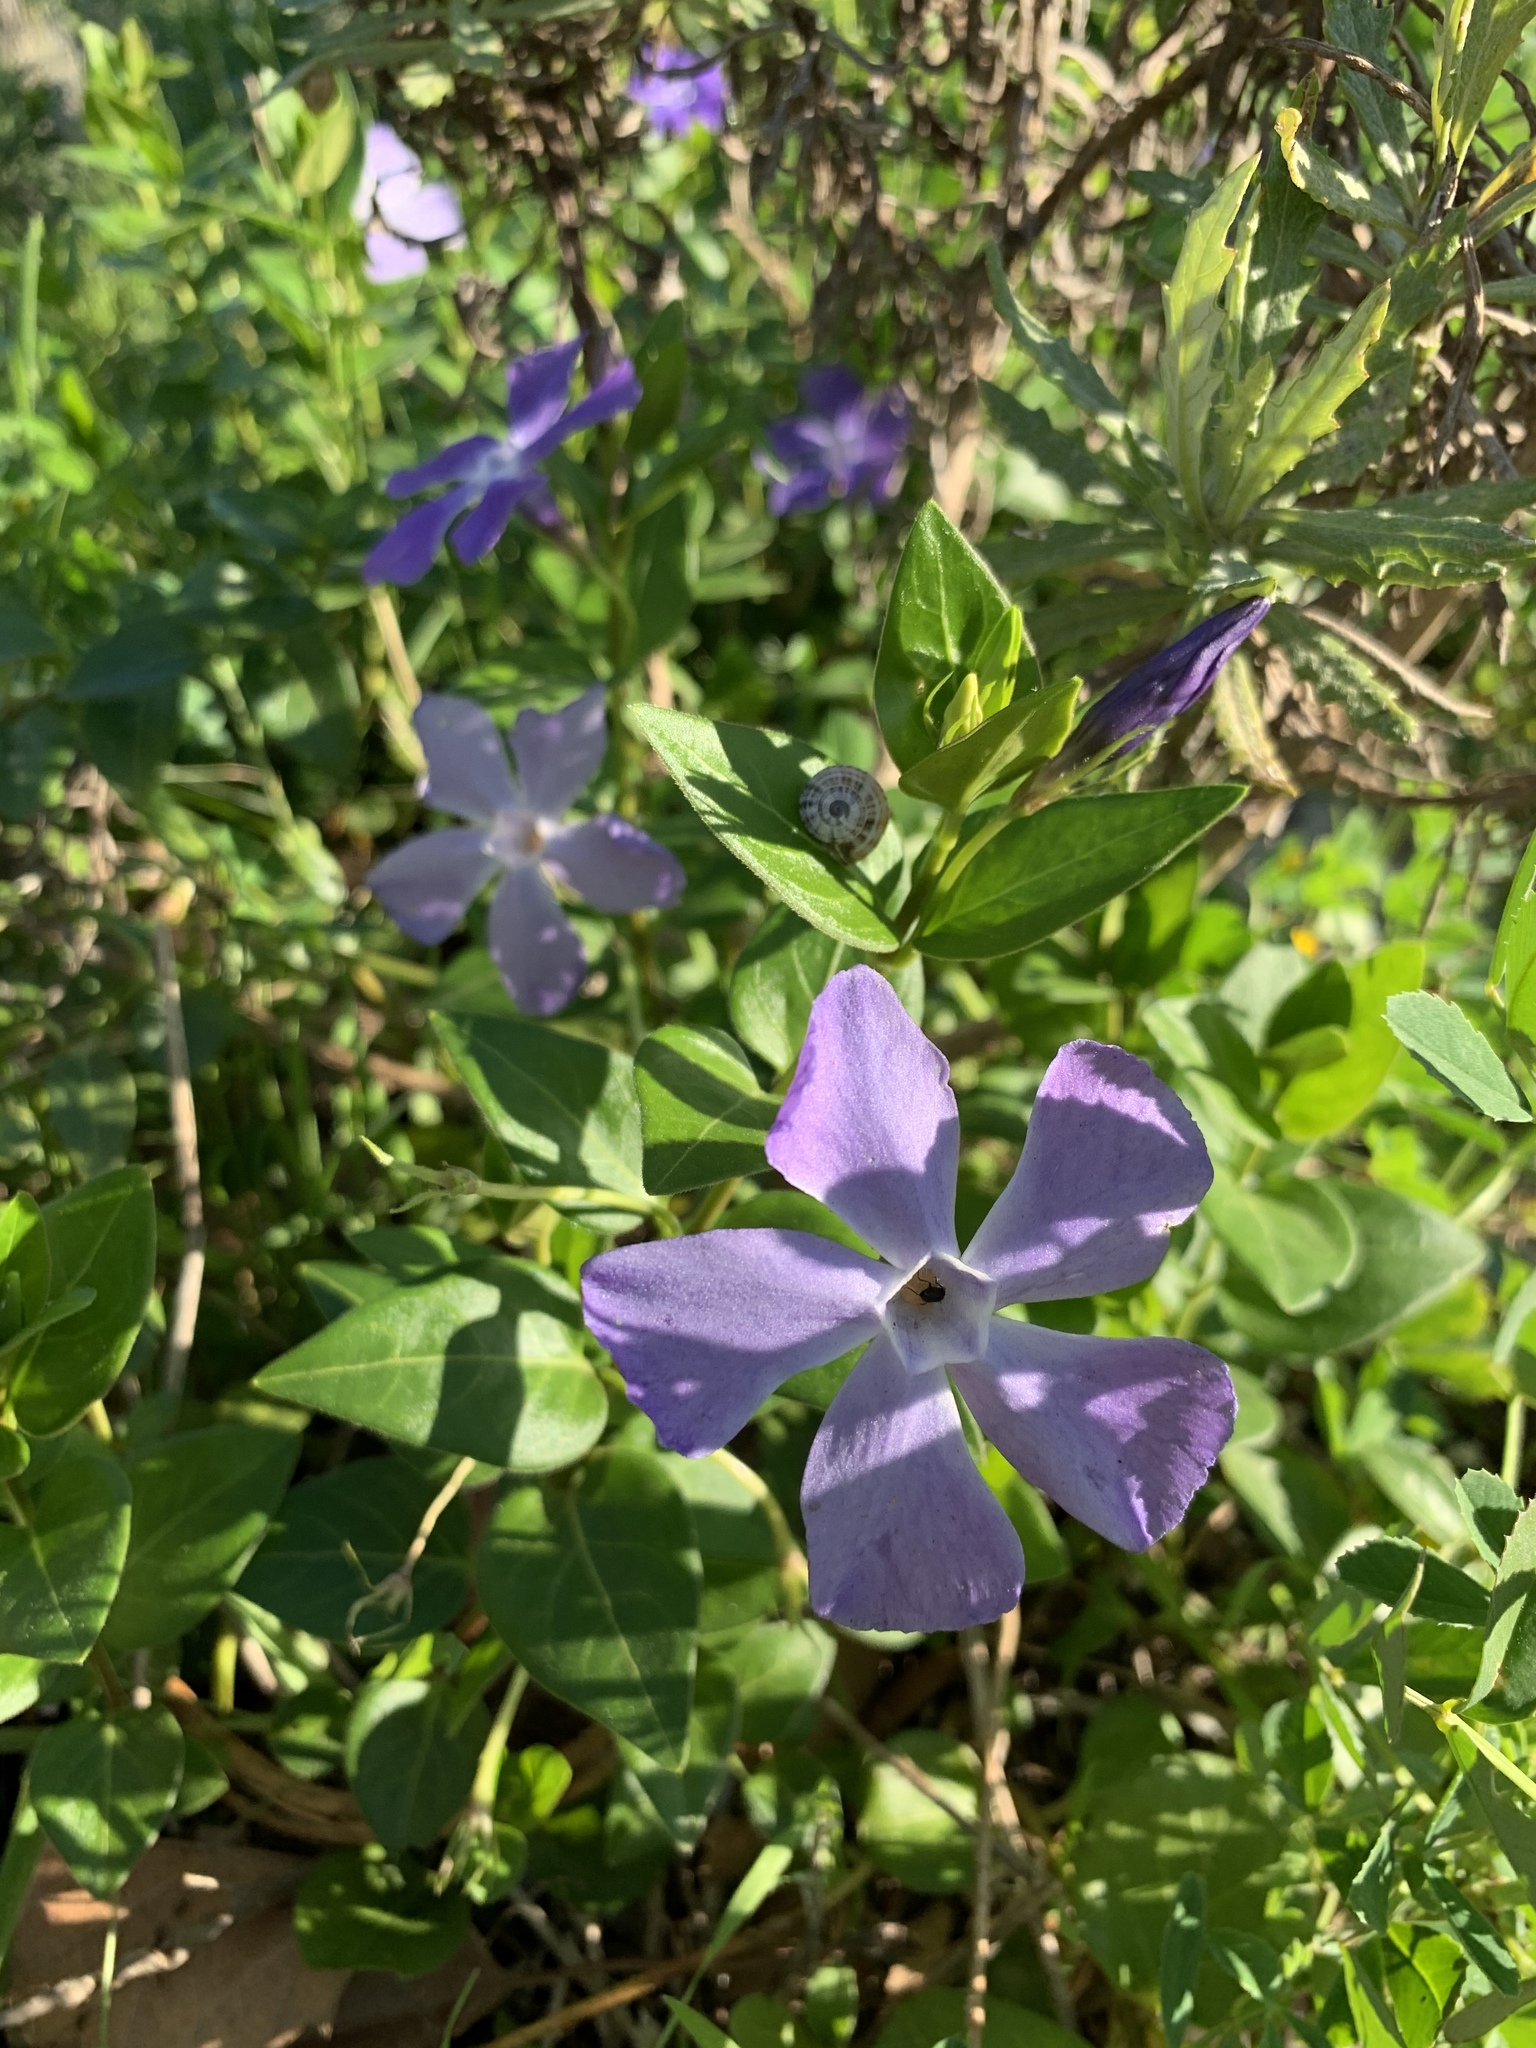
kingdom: Plantae
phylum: Tracheophyta
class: Magnoliopsida
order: Gentianales
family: Apocynaceae
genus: Vinca
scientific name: Vinca major
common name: Greater periwinkle
